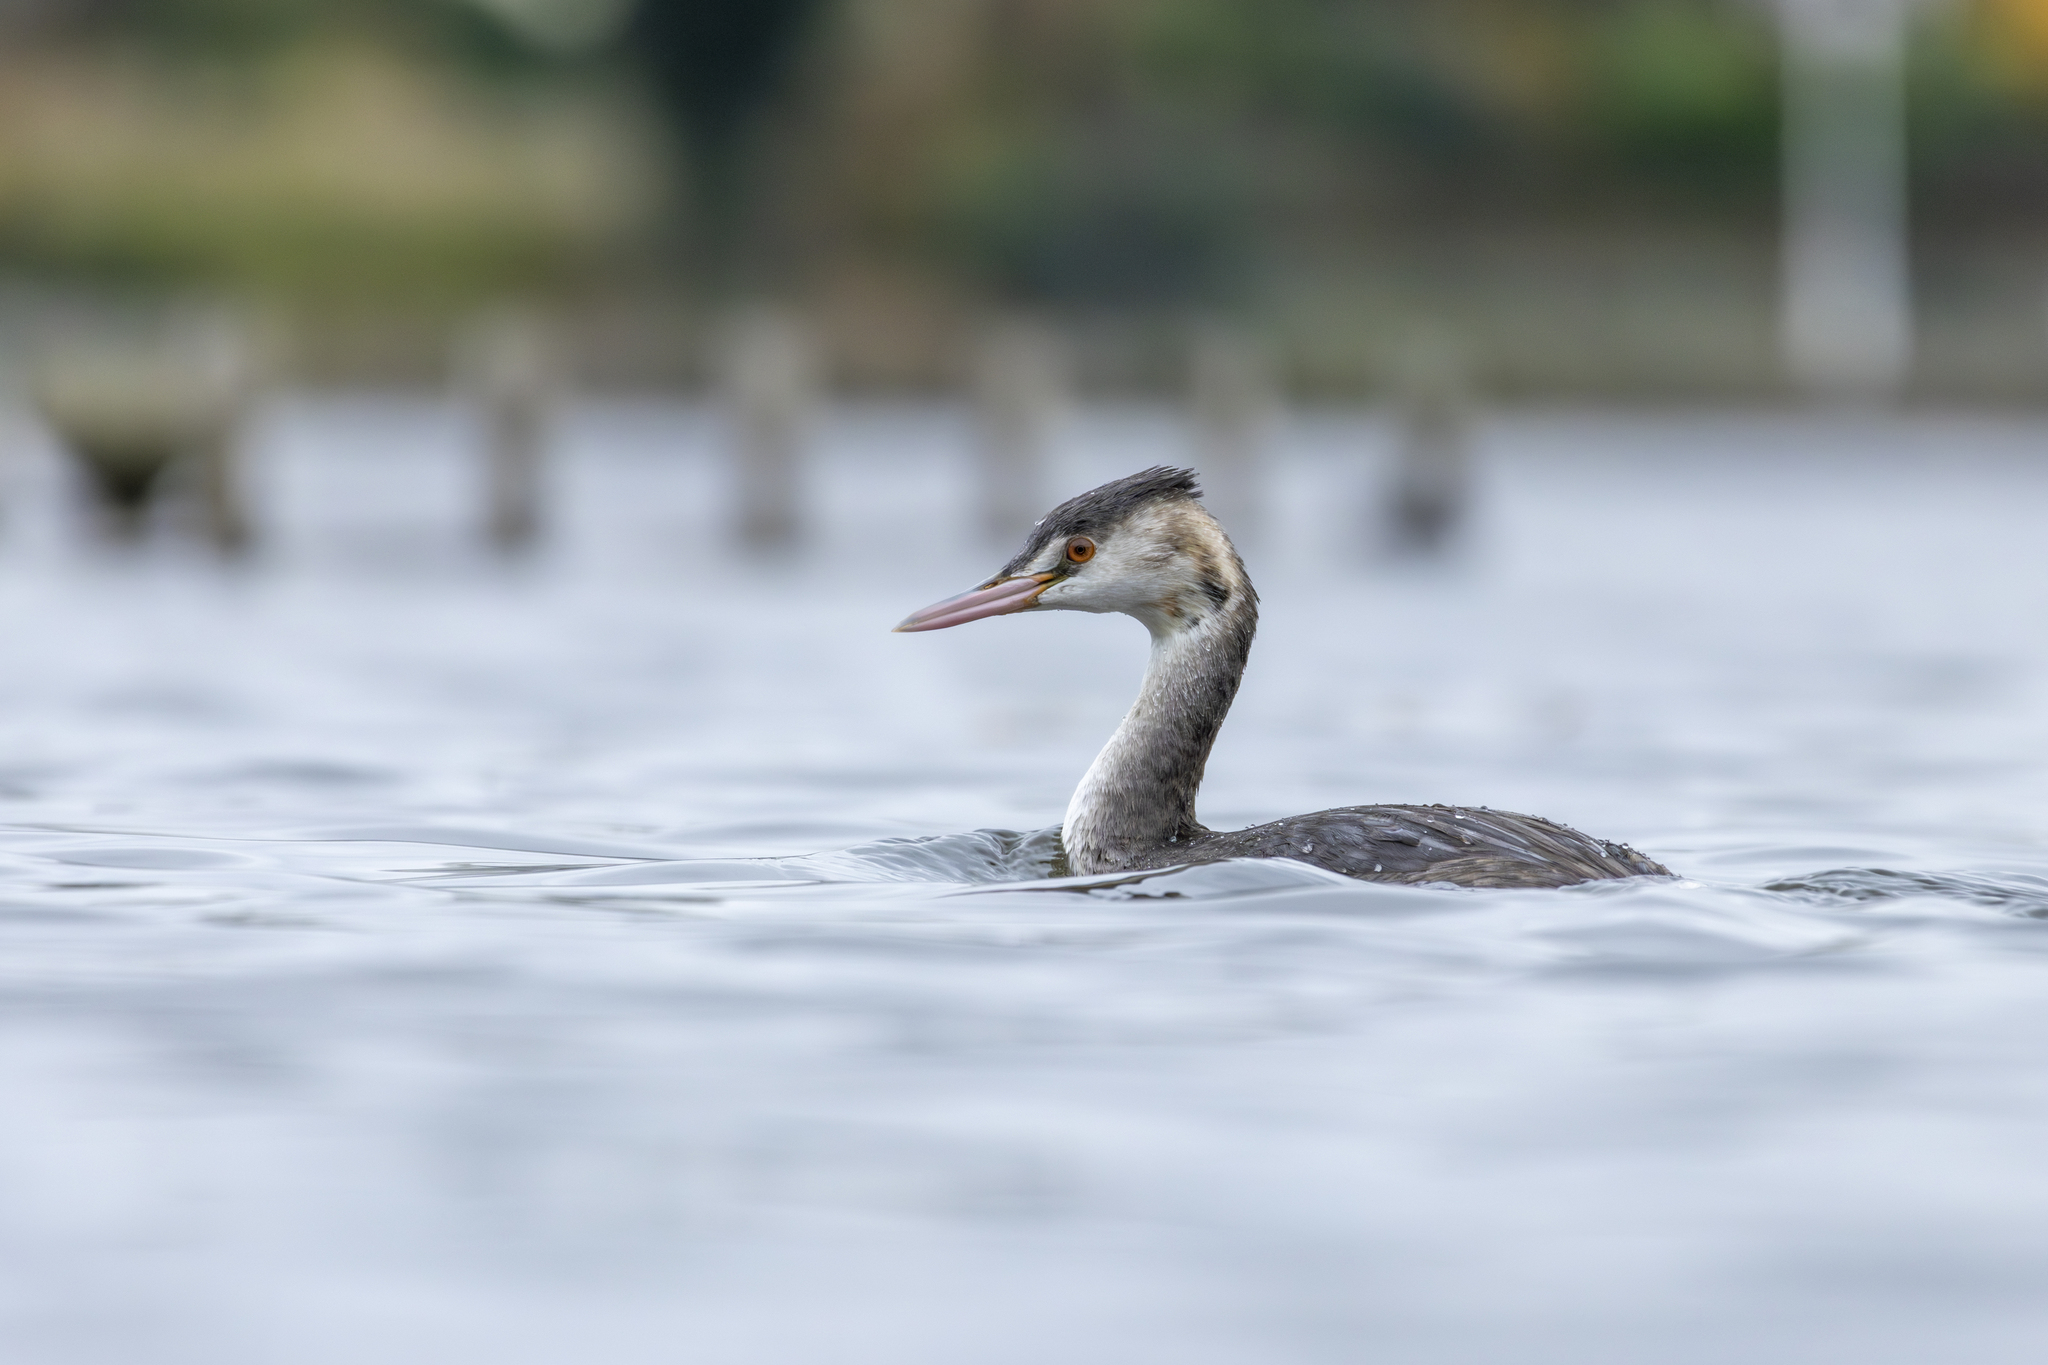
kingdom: Animalia
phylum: Chordata
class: Aves
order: Podicipediformes
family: Podicipedidae
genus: Podiceps
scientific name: Podiceps cristatus
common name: Great crested grebe
